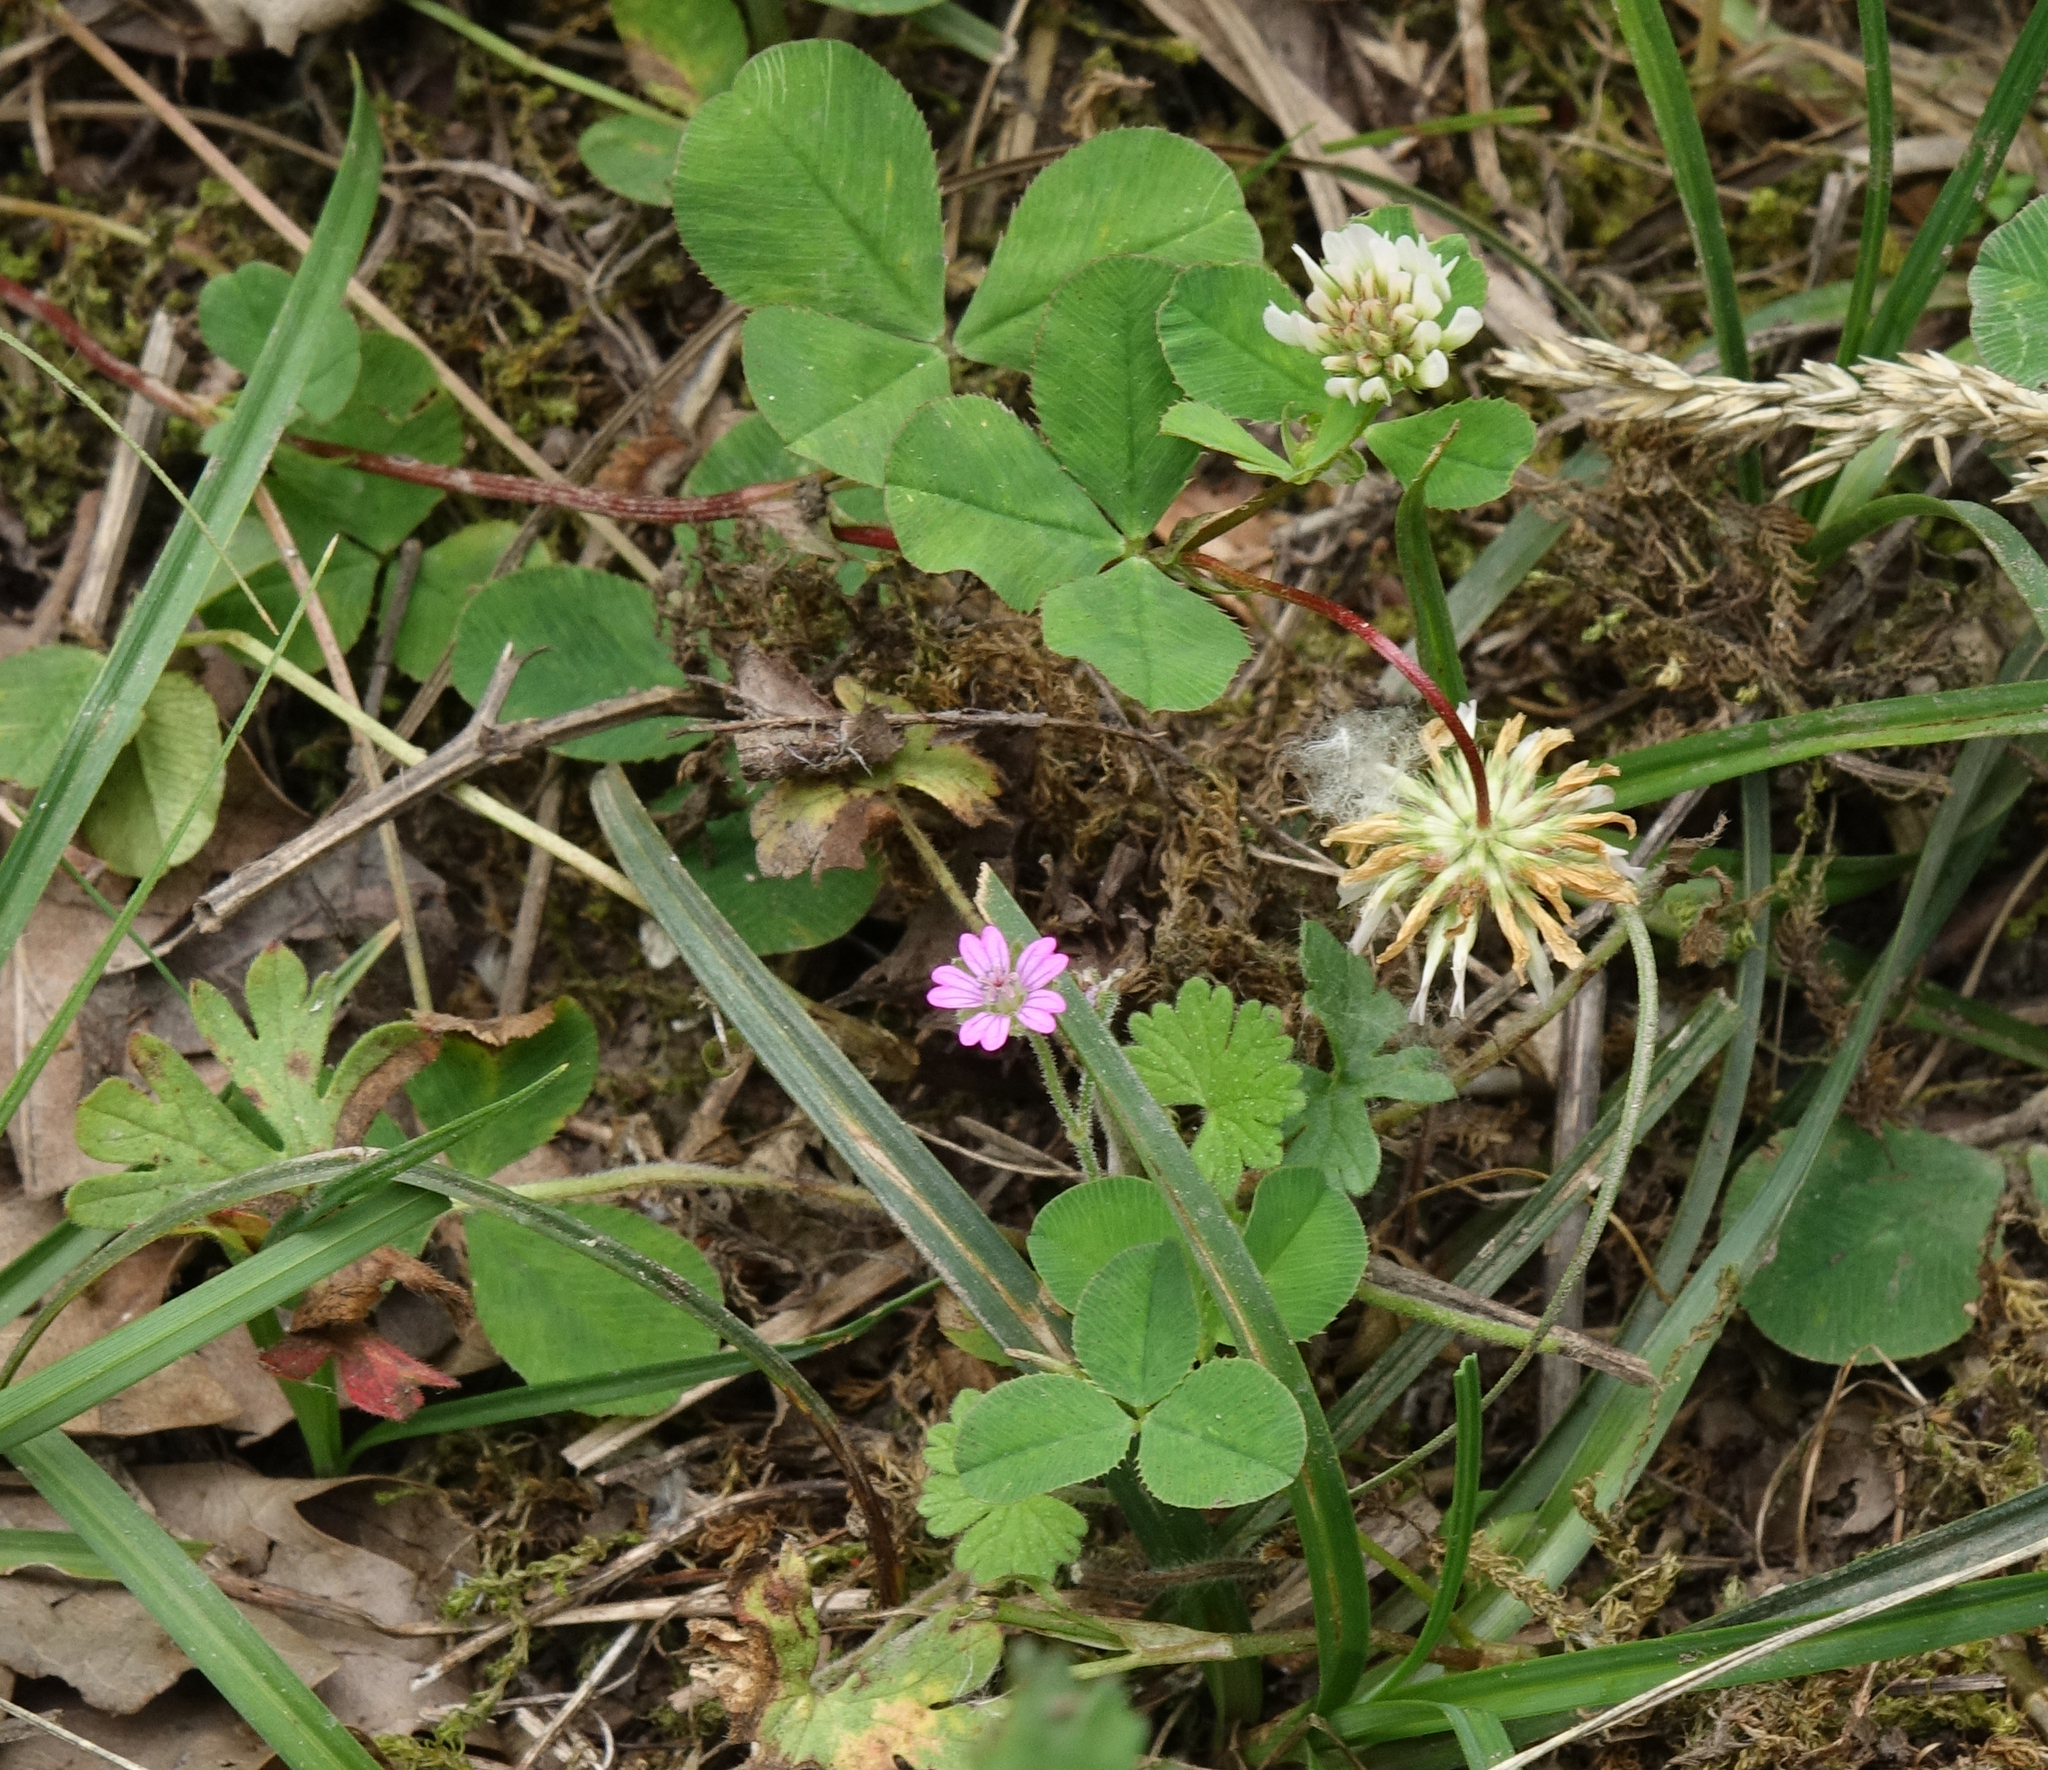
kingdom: Plantae
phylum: Tracheophyta
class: Magnoliopsida
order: Fabales
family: Fabaceae
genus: Trifolium
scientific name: Trifolium repens
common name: White clover
